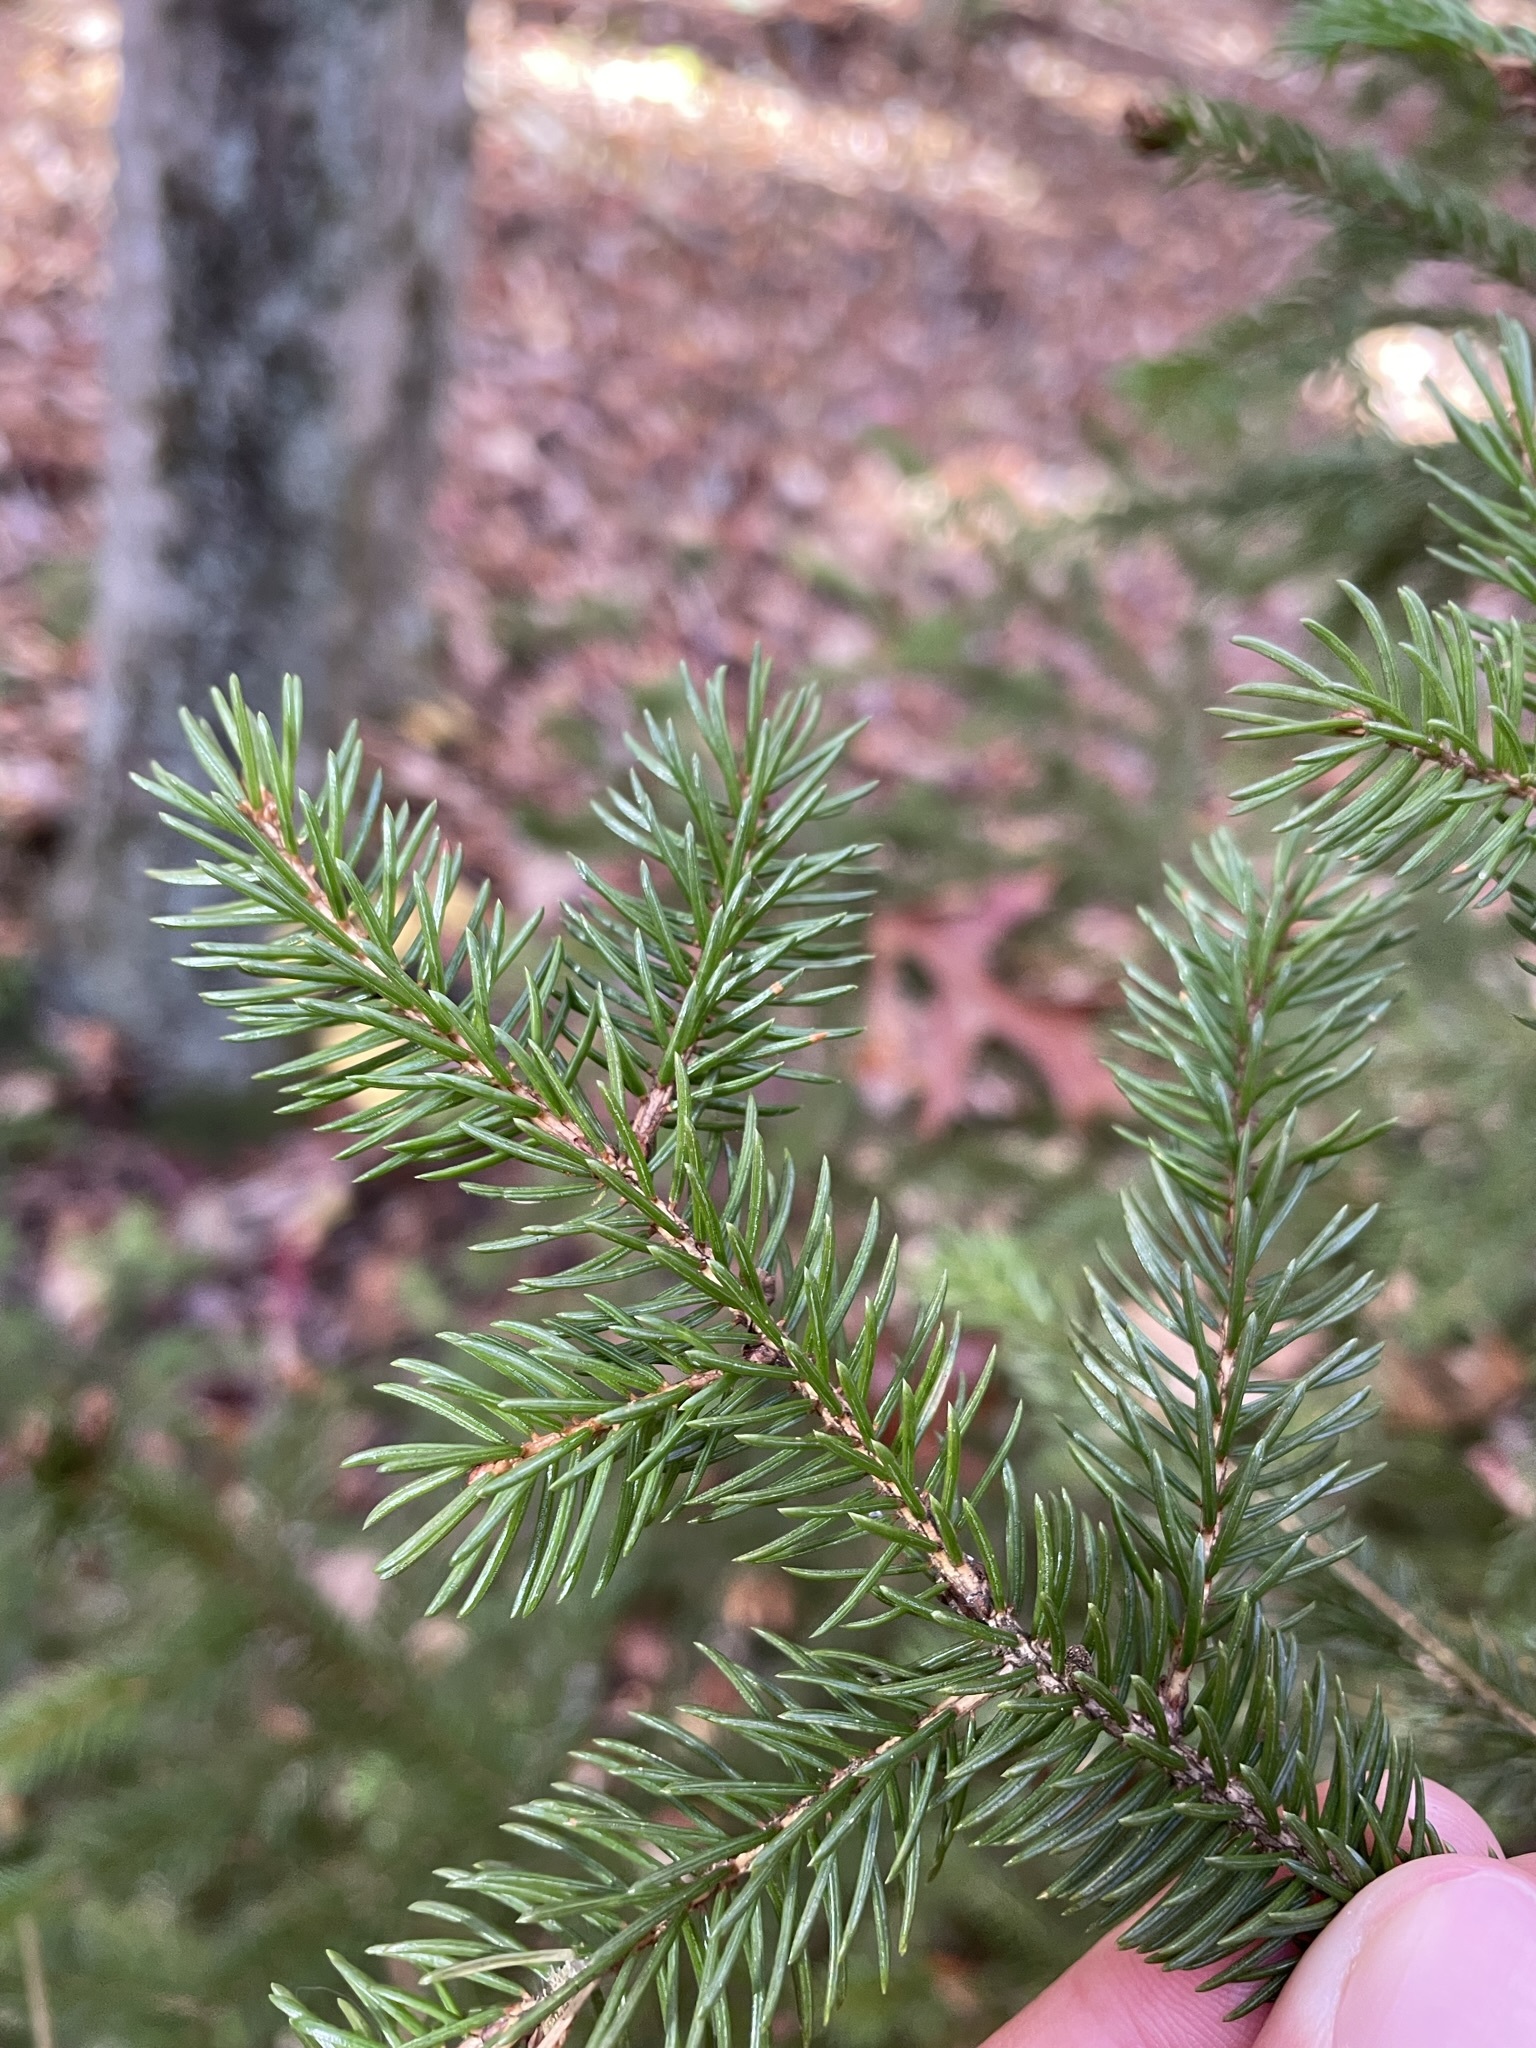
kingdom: Plantae
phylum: Tracheophyta
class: Pinopsida
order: Pinales
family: Pinaceae
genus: Picea
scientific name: Picea rubens
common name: Red spruce
